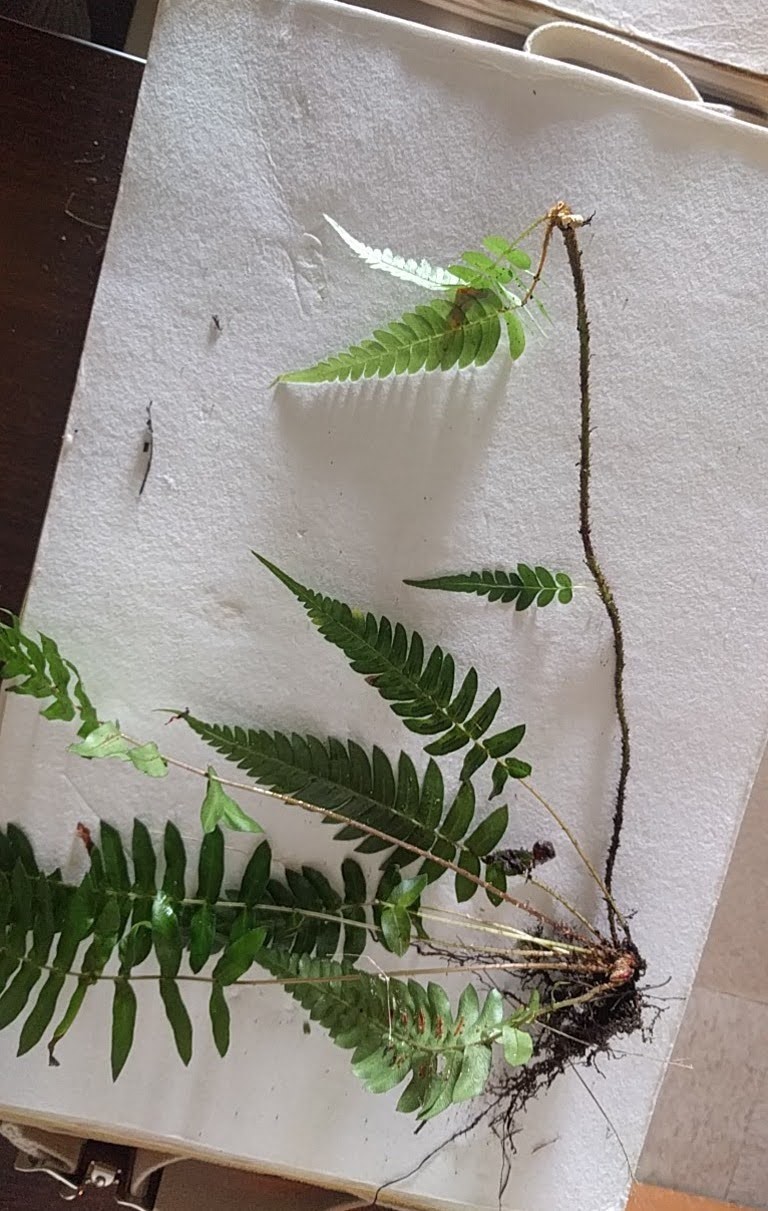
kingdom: Plantae
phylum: Tracheophyta
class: Polypodiopsida
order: Polypodiales
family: Blechnaceae
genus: Blechnum
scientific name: Blechnum appendiculatum
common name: Palm fern
